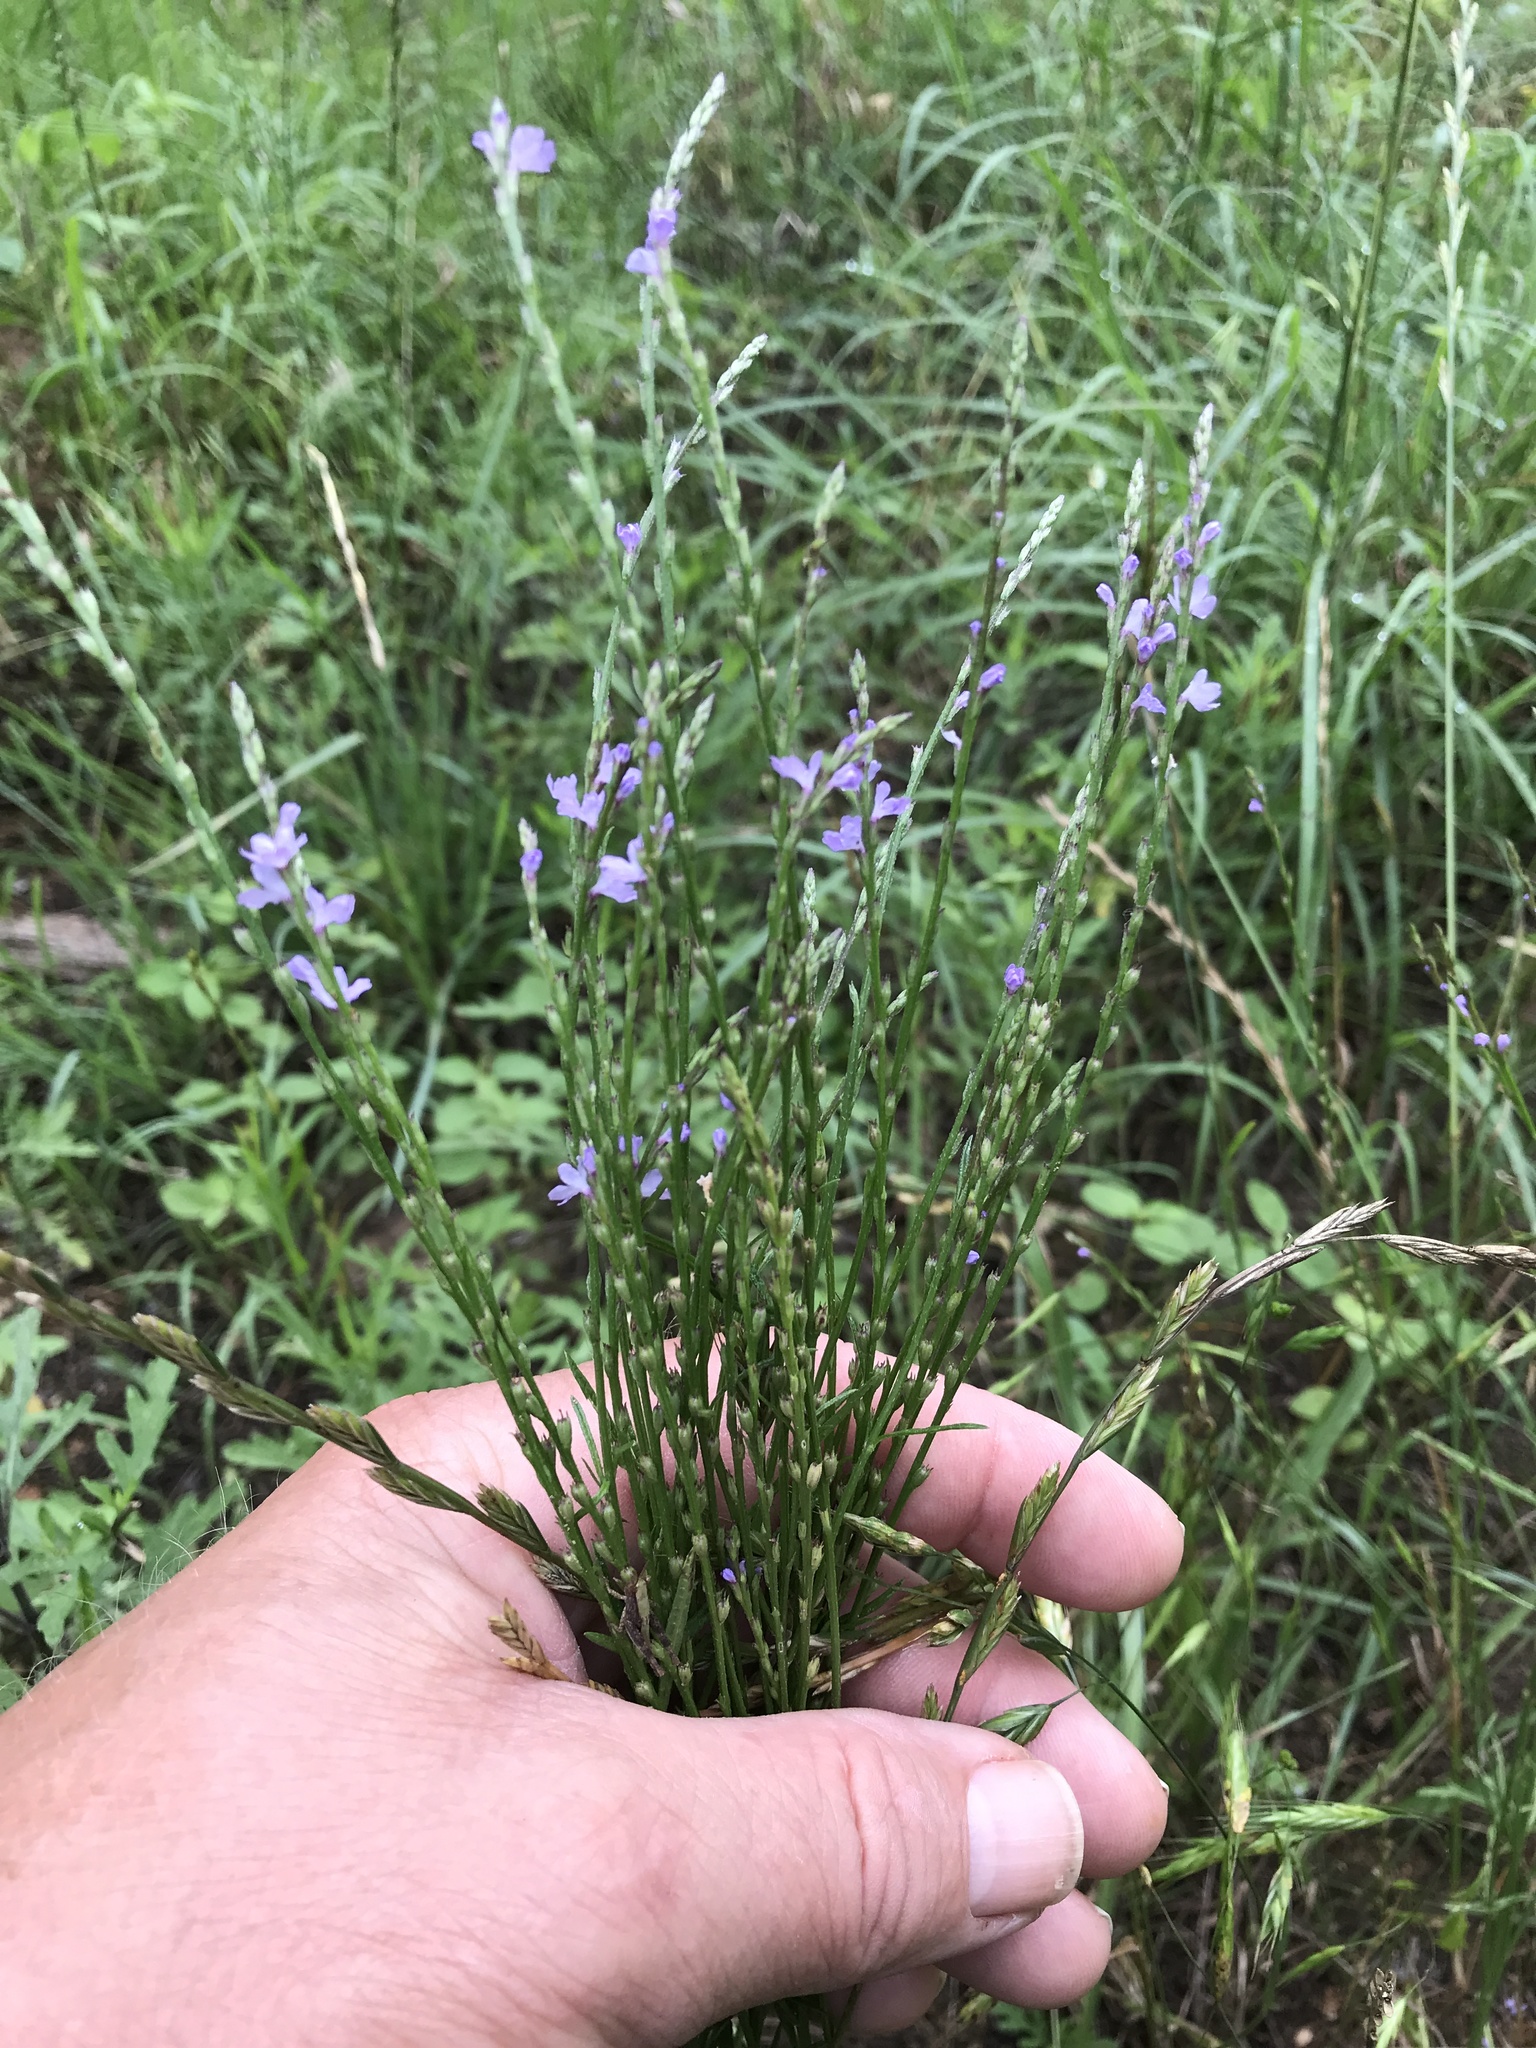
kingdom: Plantae
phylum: Tracheophyta
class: Magnoliopsida
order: Lamiales
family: Verbenaceae
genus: Verbena
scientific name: Verbena halei
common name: Texas vervain
